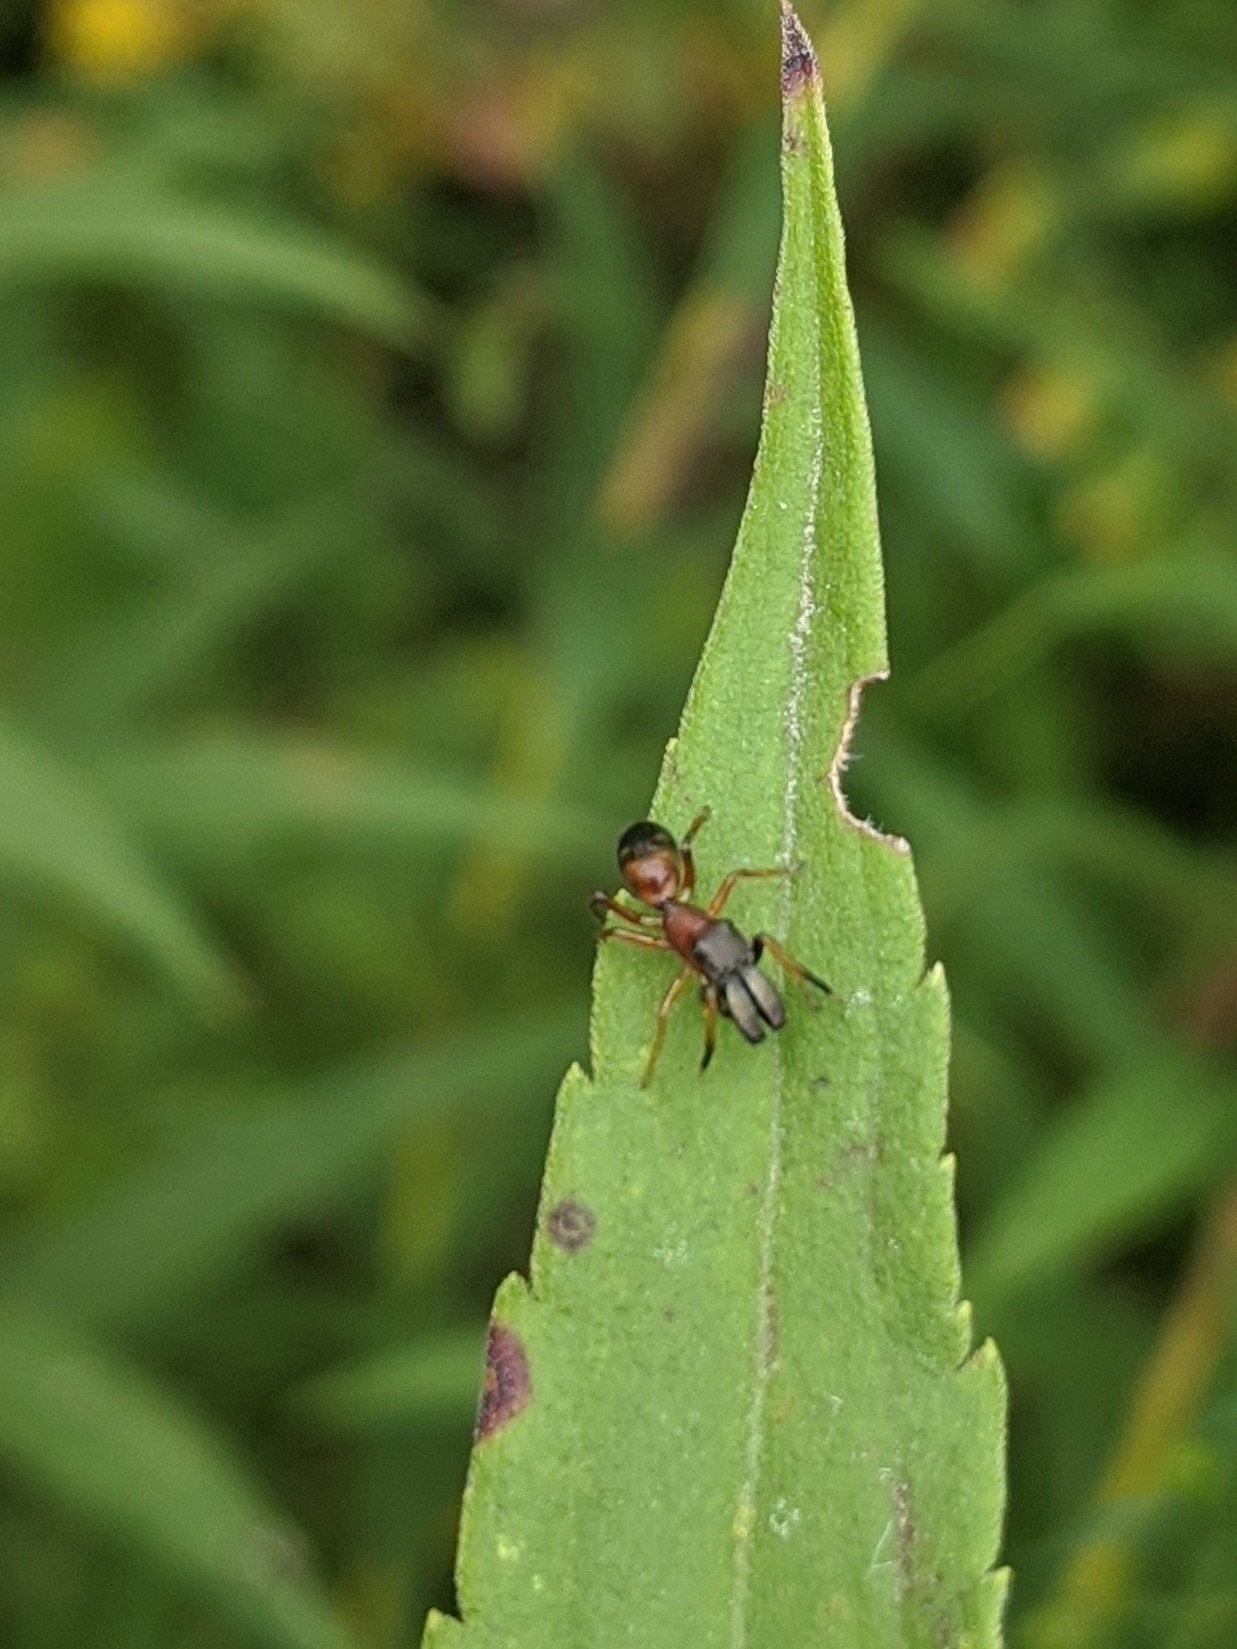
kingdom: Animalia
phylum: Arthropoda
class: Arachnida
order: Araneae
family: Salticidae
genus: Myrmarachne
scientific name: Myrmarachne formicaria
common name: Ant mimic jumping spider
